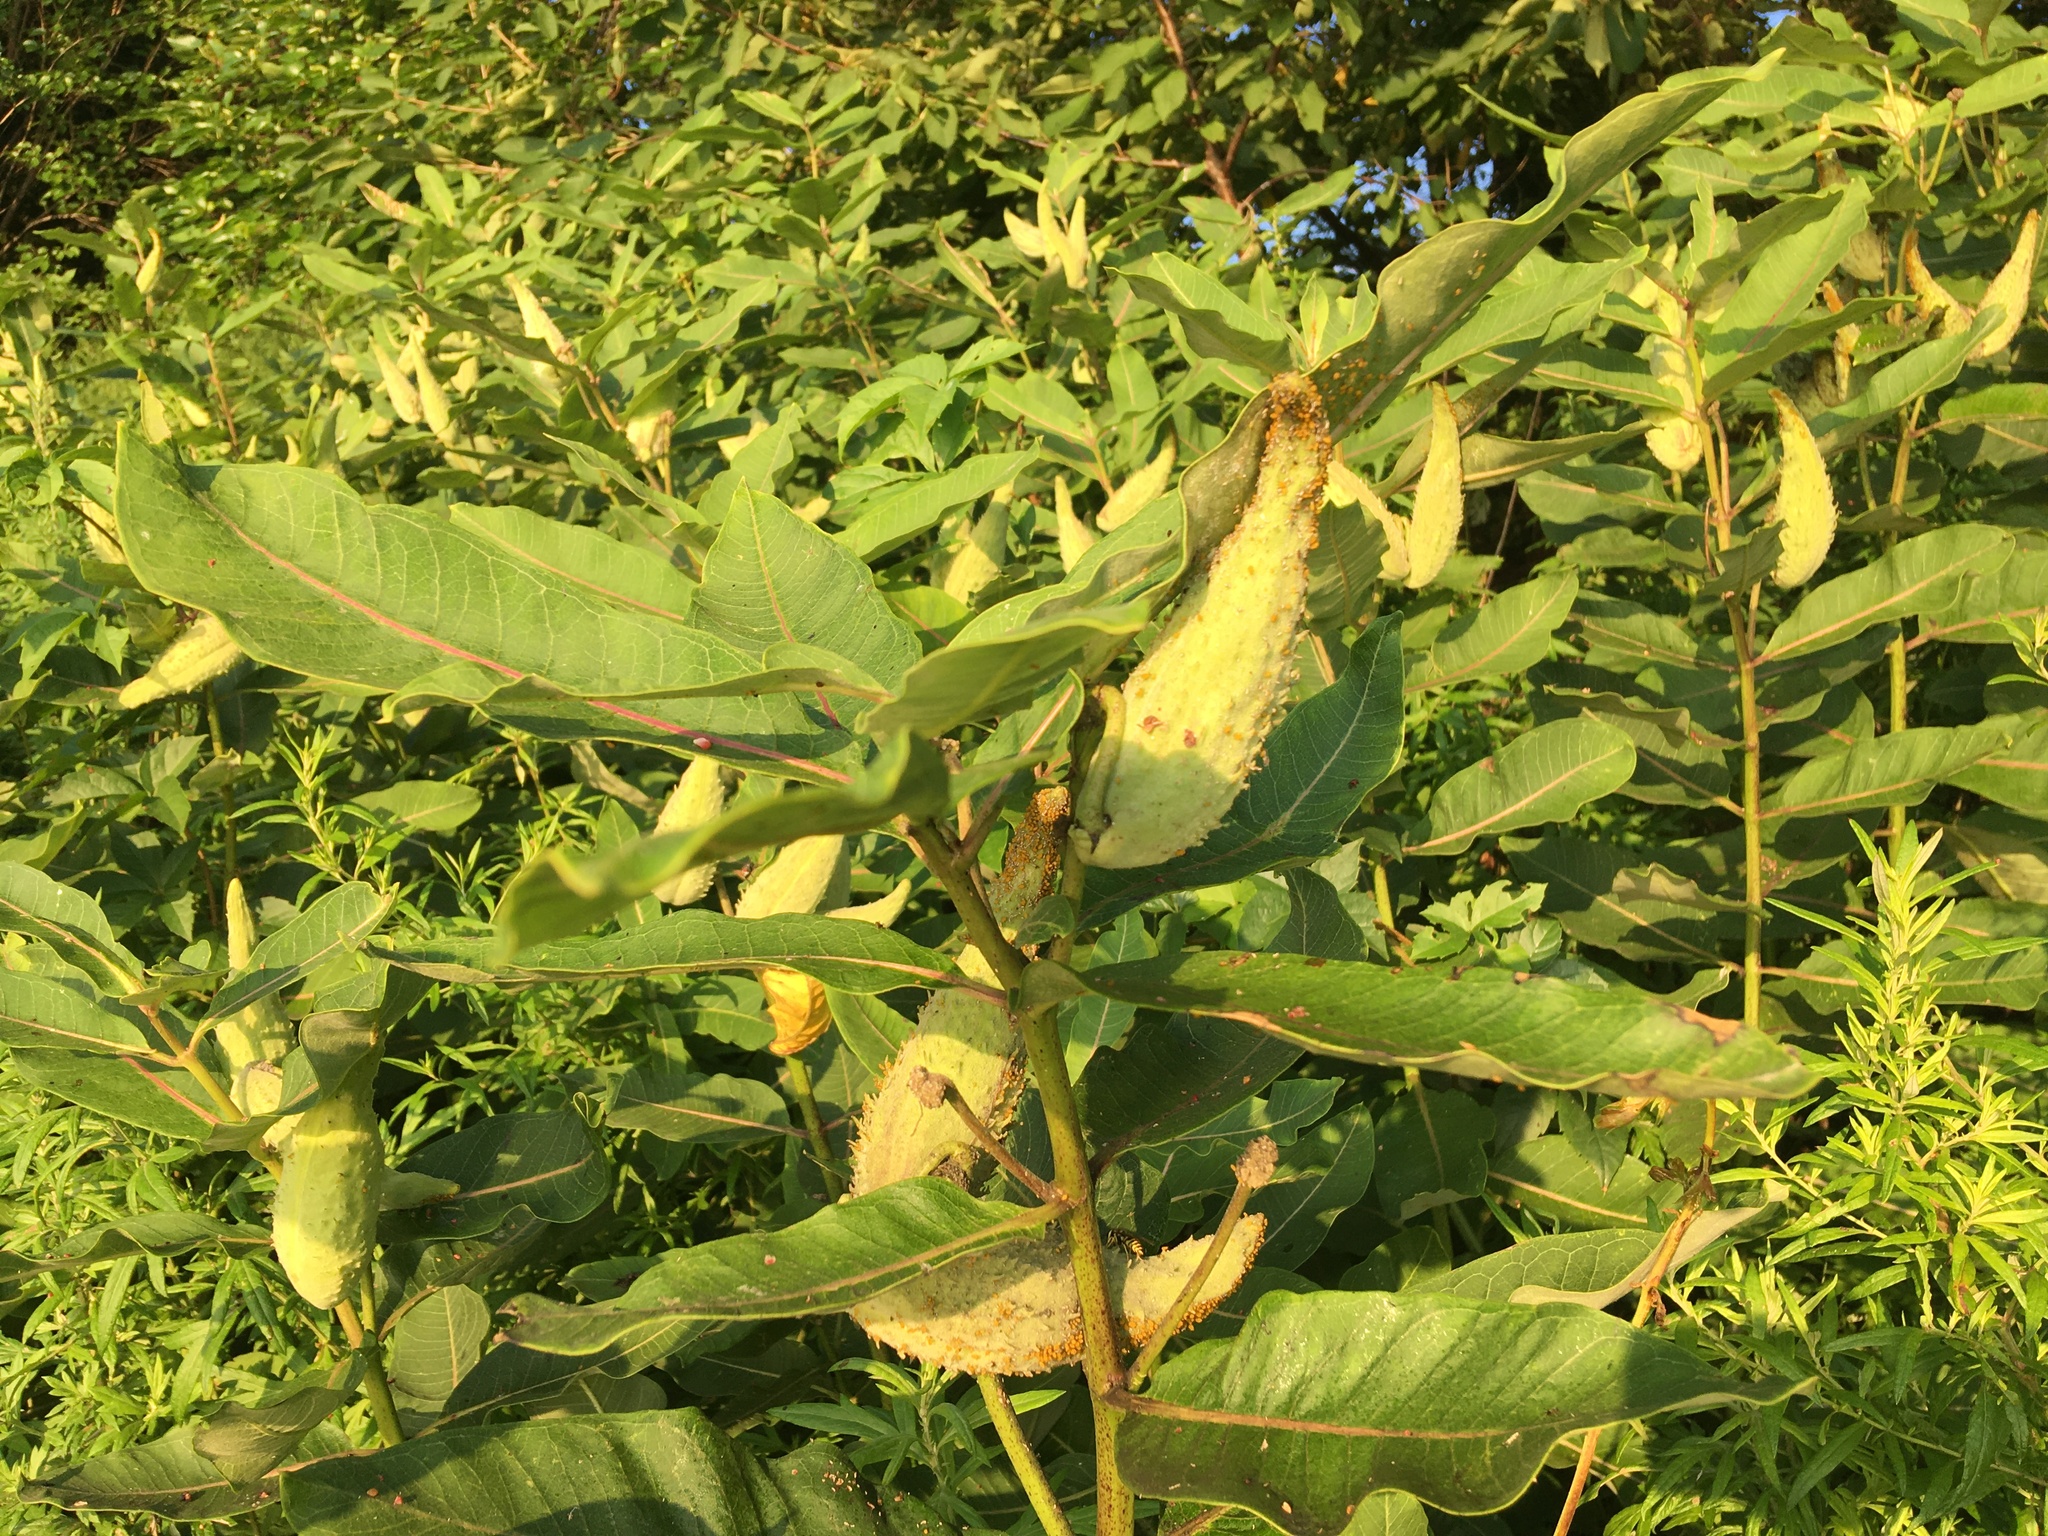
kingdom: Plantae
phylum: Tracheophyta
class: Magnoliopsida
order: Gentianales
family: Apocynaceae
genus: Asclepias
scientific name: Asclepias syriaca
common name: Common milkweed
